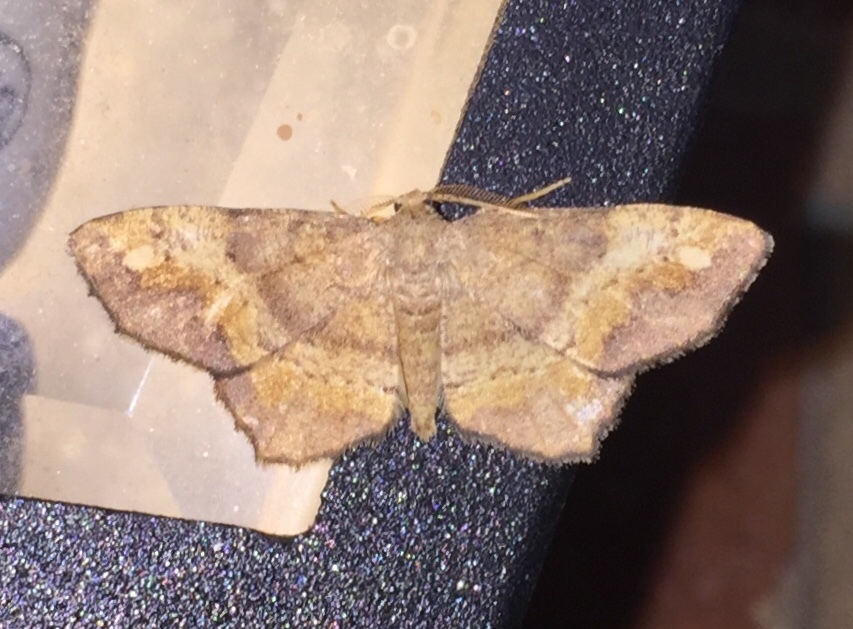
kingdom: Animalia
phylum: Arthropoda
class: Insecta
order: Lepidoptera
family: Geometridae
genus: Hypagyrtis
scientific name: Hypagyrtis unipunctata
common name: One-spotted variant
